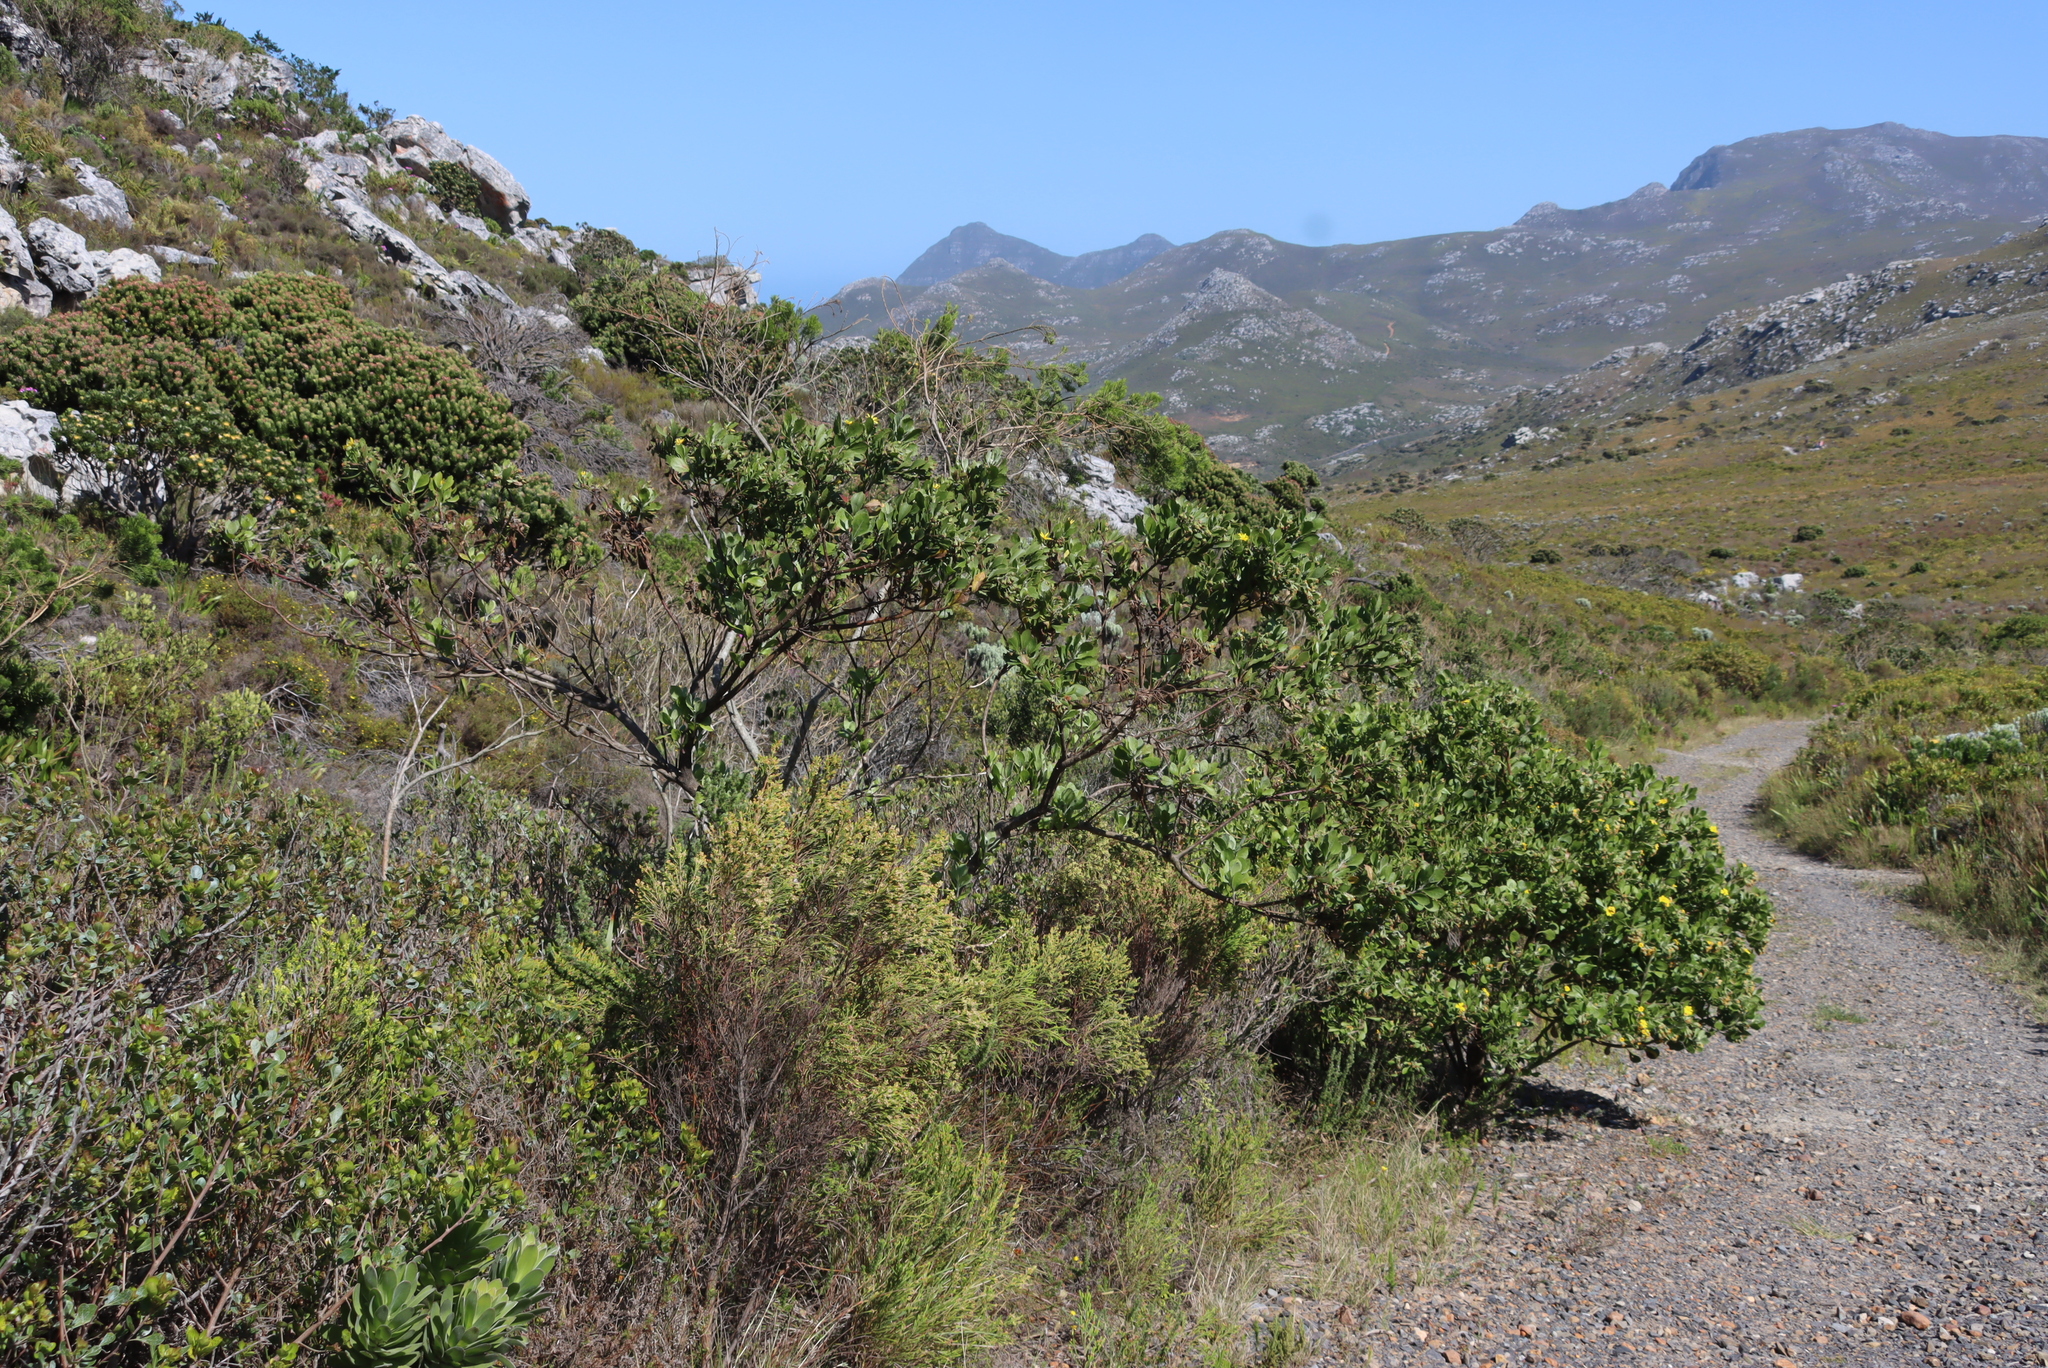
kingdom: Plantae
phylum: Tracheophyta
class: Magnoliopsida
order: Asterales
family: Asteraceae
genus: Osteospermum
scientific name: Osteospermum moniliferum
